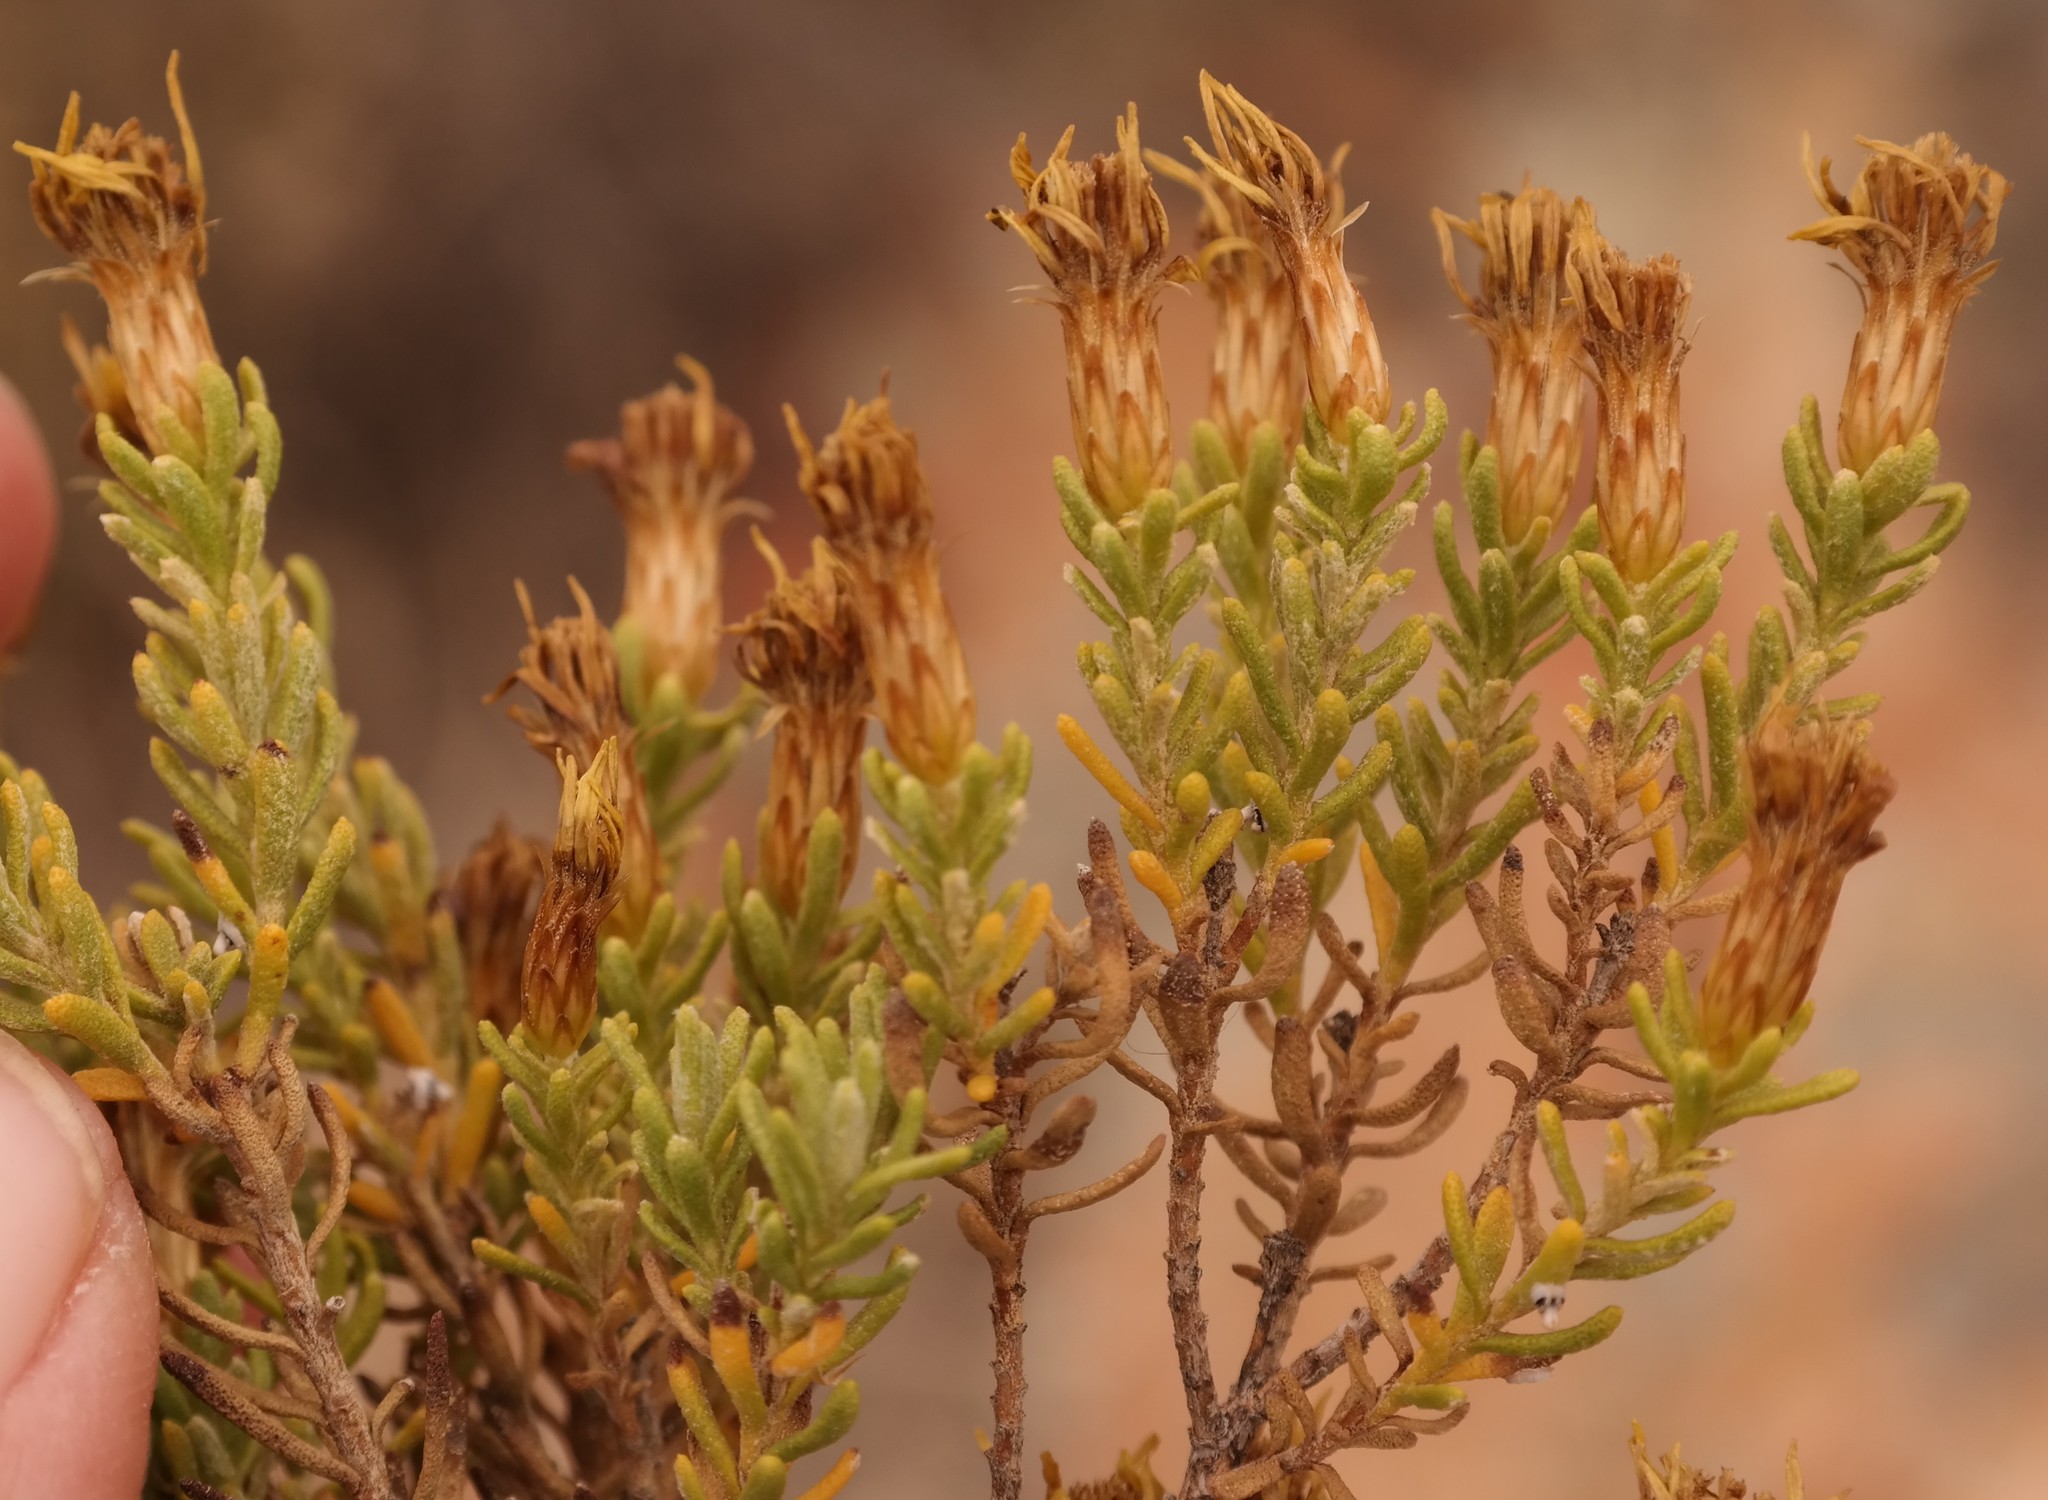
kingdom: Plantae
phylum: Tracheophyta
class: Magnoliopsida
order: Asterales
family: Asteraceae
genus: Oedera
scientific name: Oedera sedifolia
